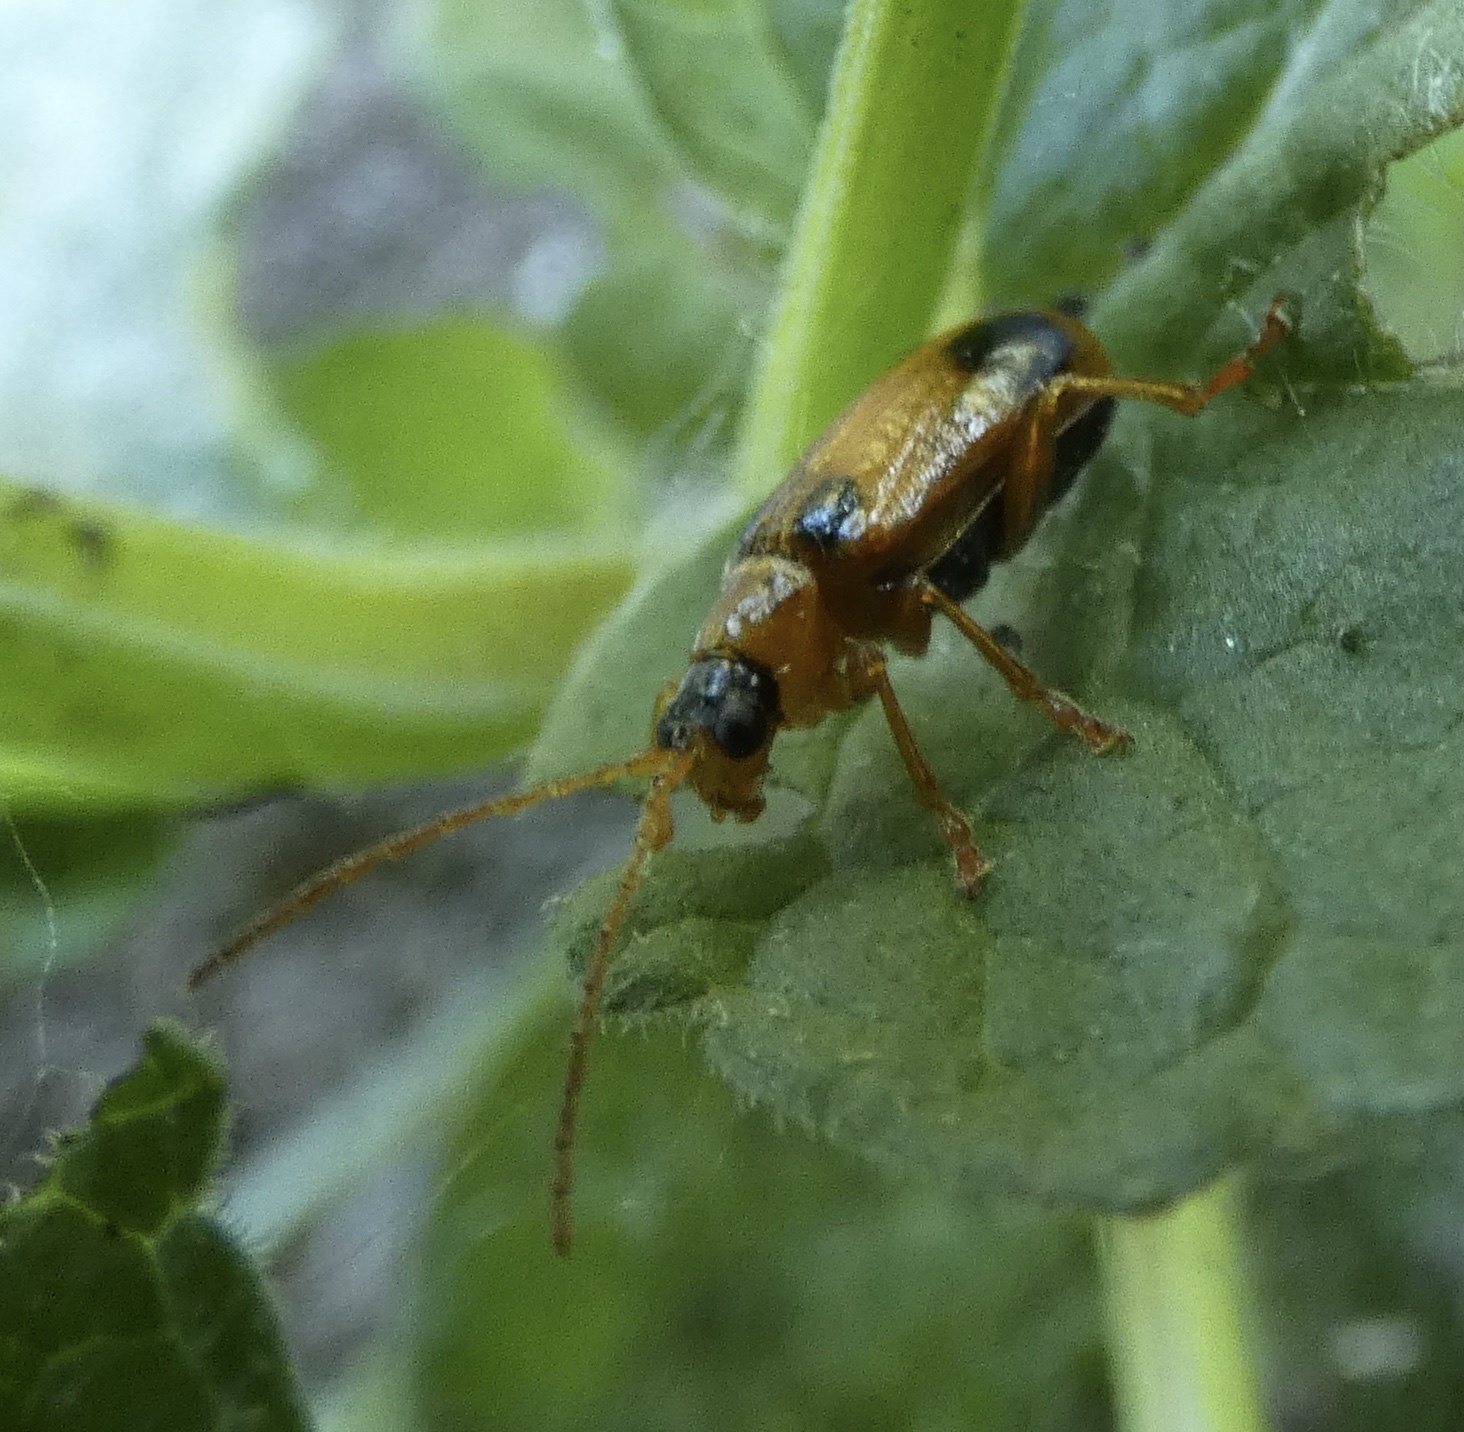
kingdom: Animalia
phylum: Arthropoda
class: Insecta
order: Coleoptera
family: Chrysomelidae
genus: Phyllobrotica
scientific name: Phyllobrotica quadrimaculata
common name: Skullcap leaf beetle
